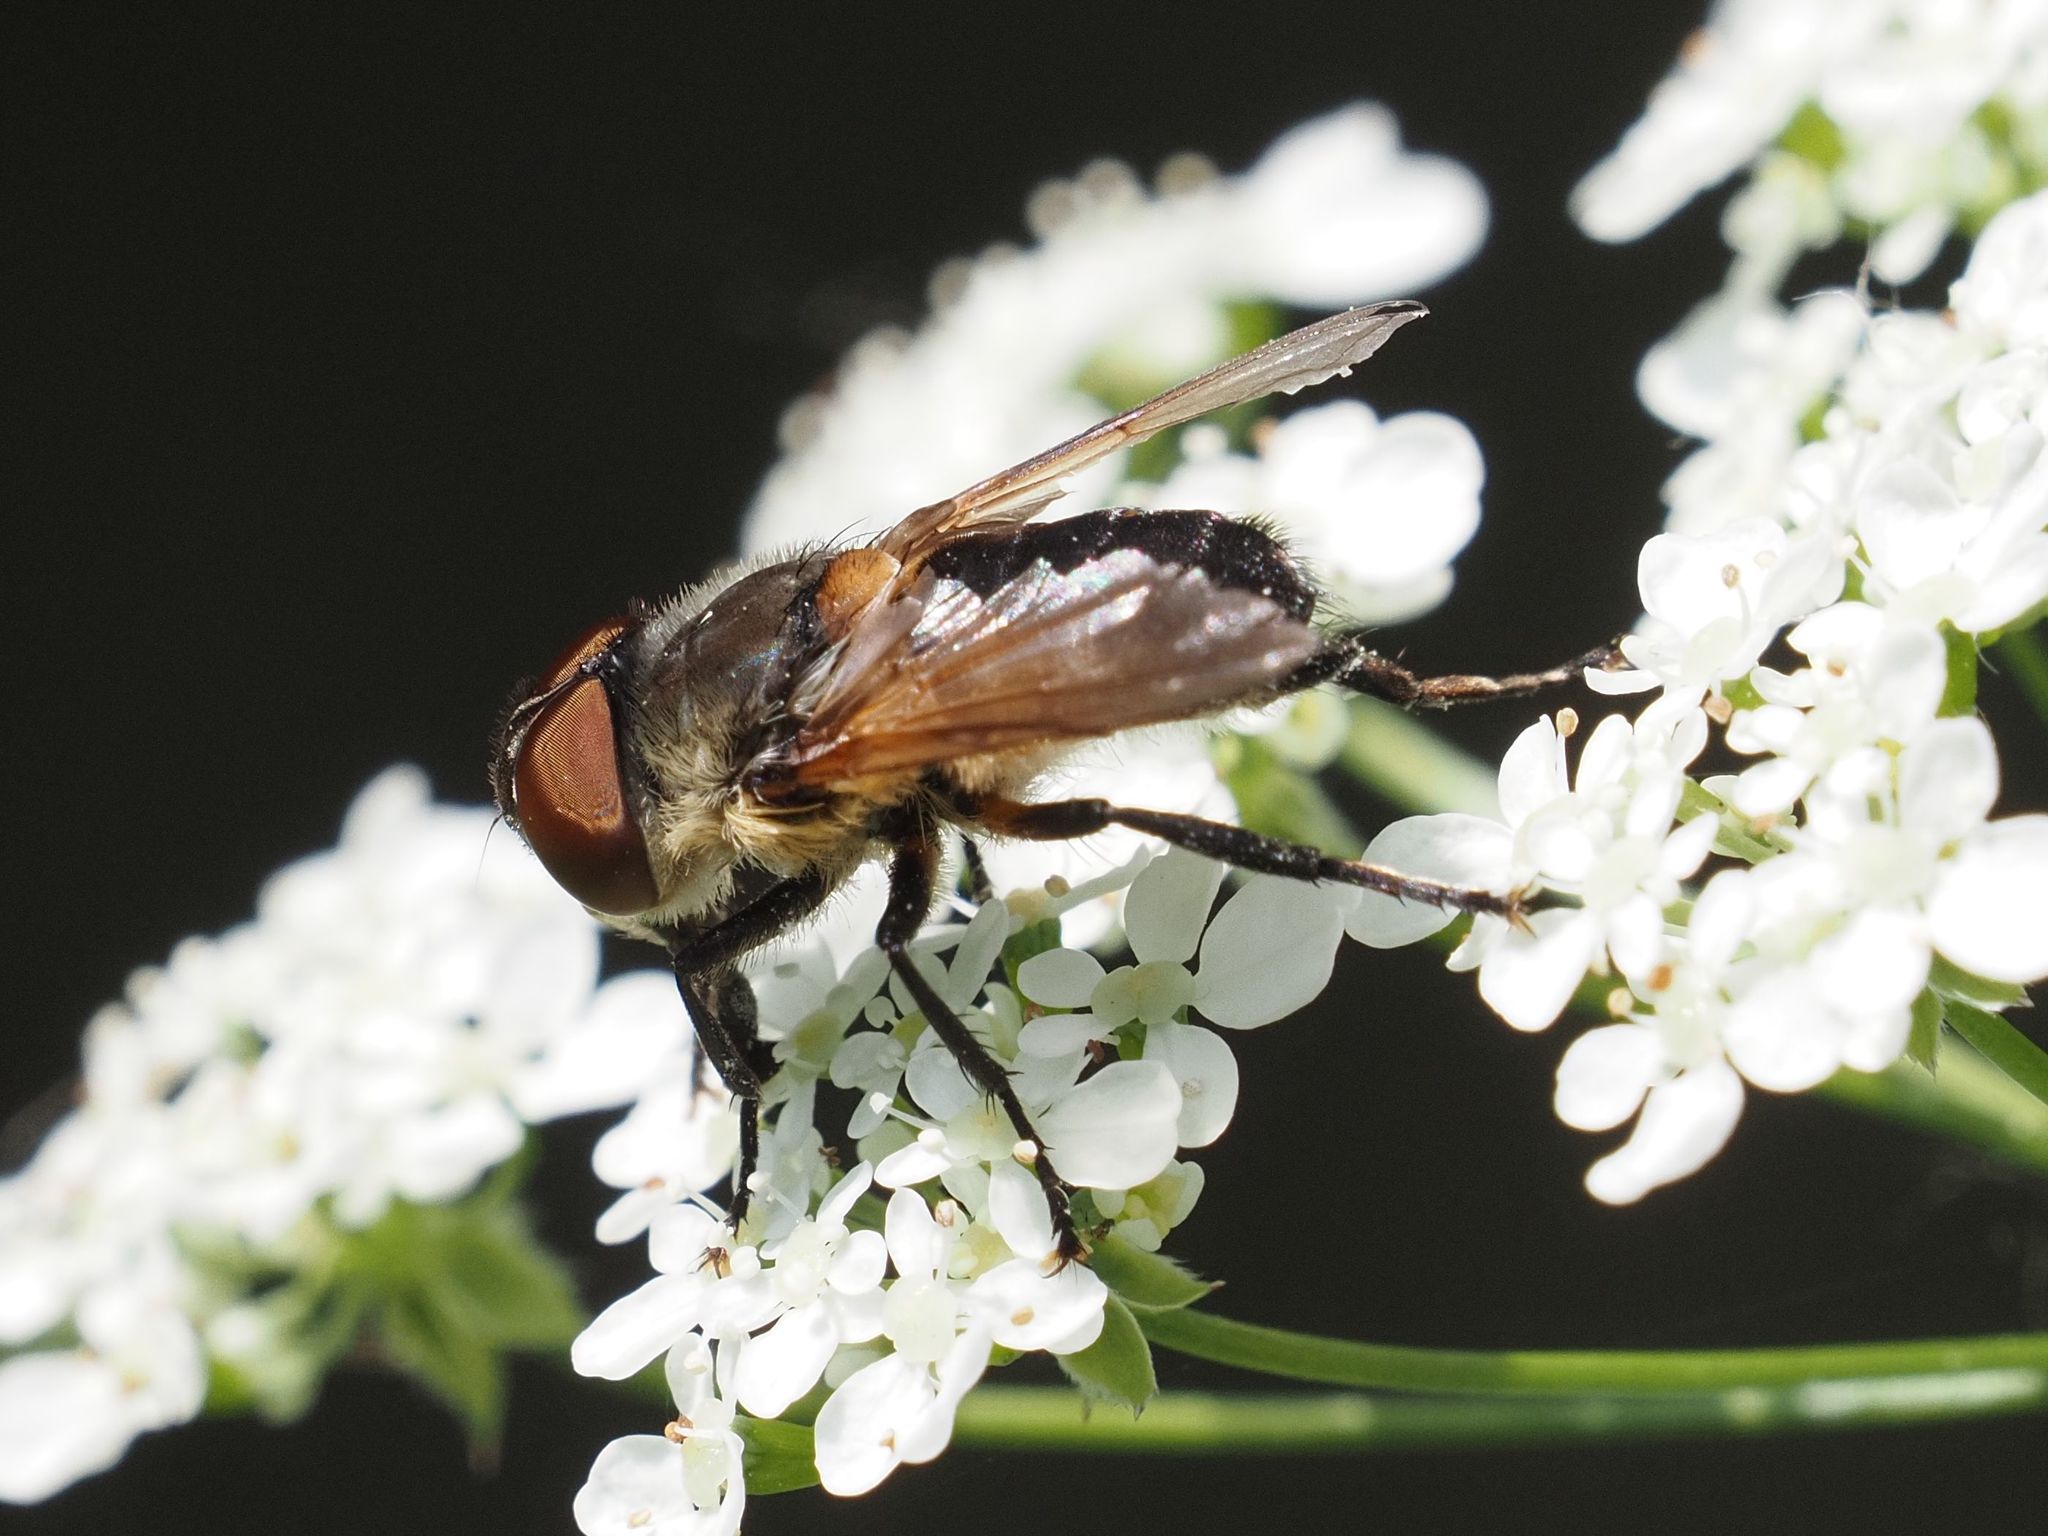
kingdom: Animalia
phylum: Arthropoda
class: Insecta
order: Diptera
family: Tachinidae
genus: Phasia
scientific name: Phasia aurigera
